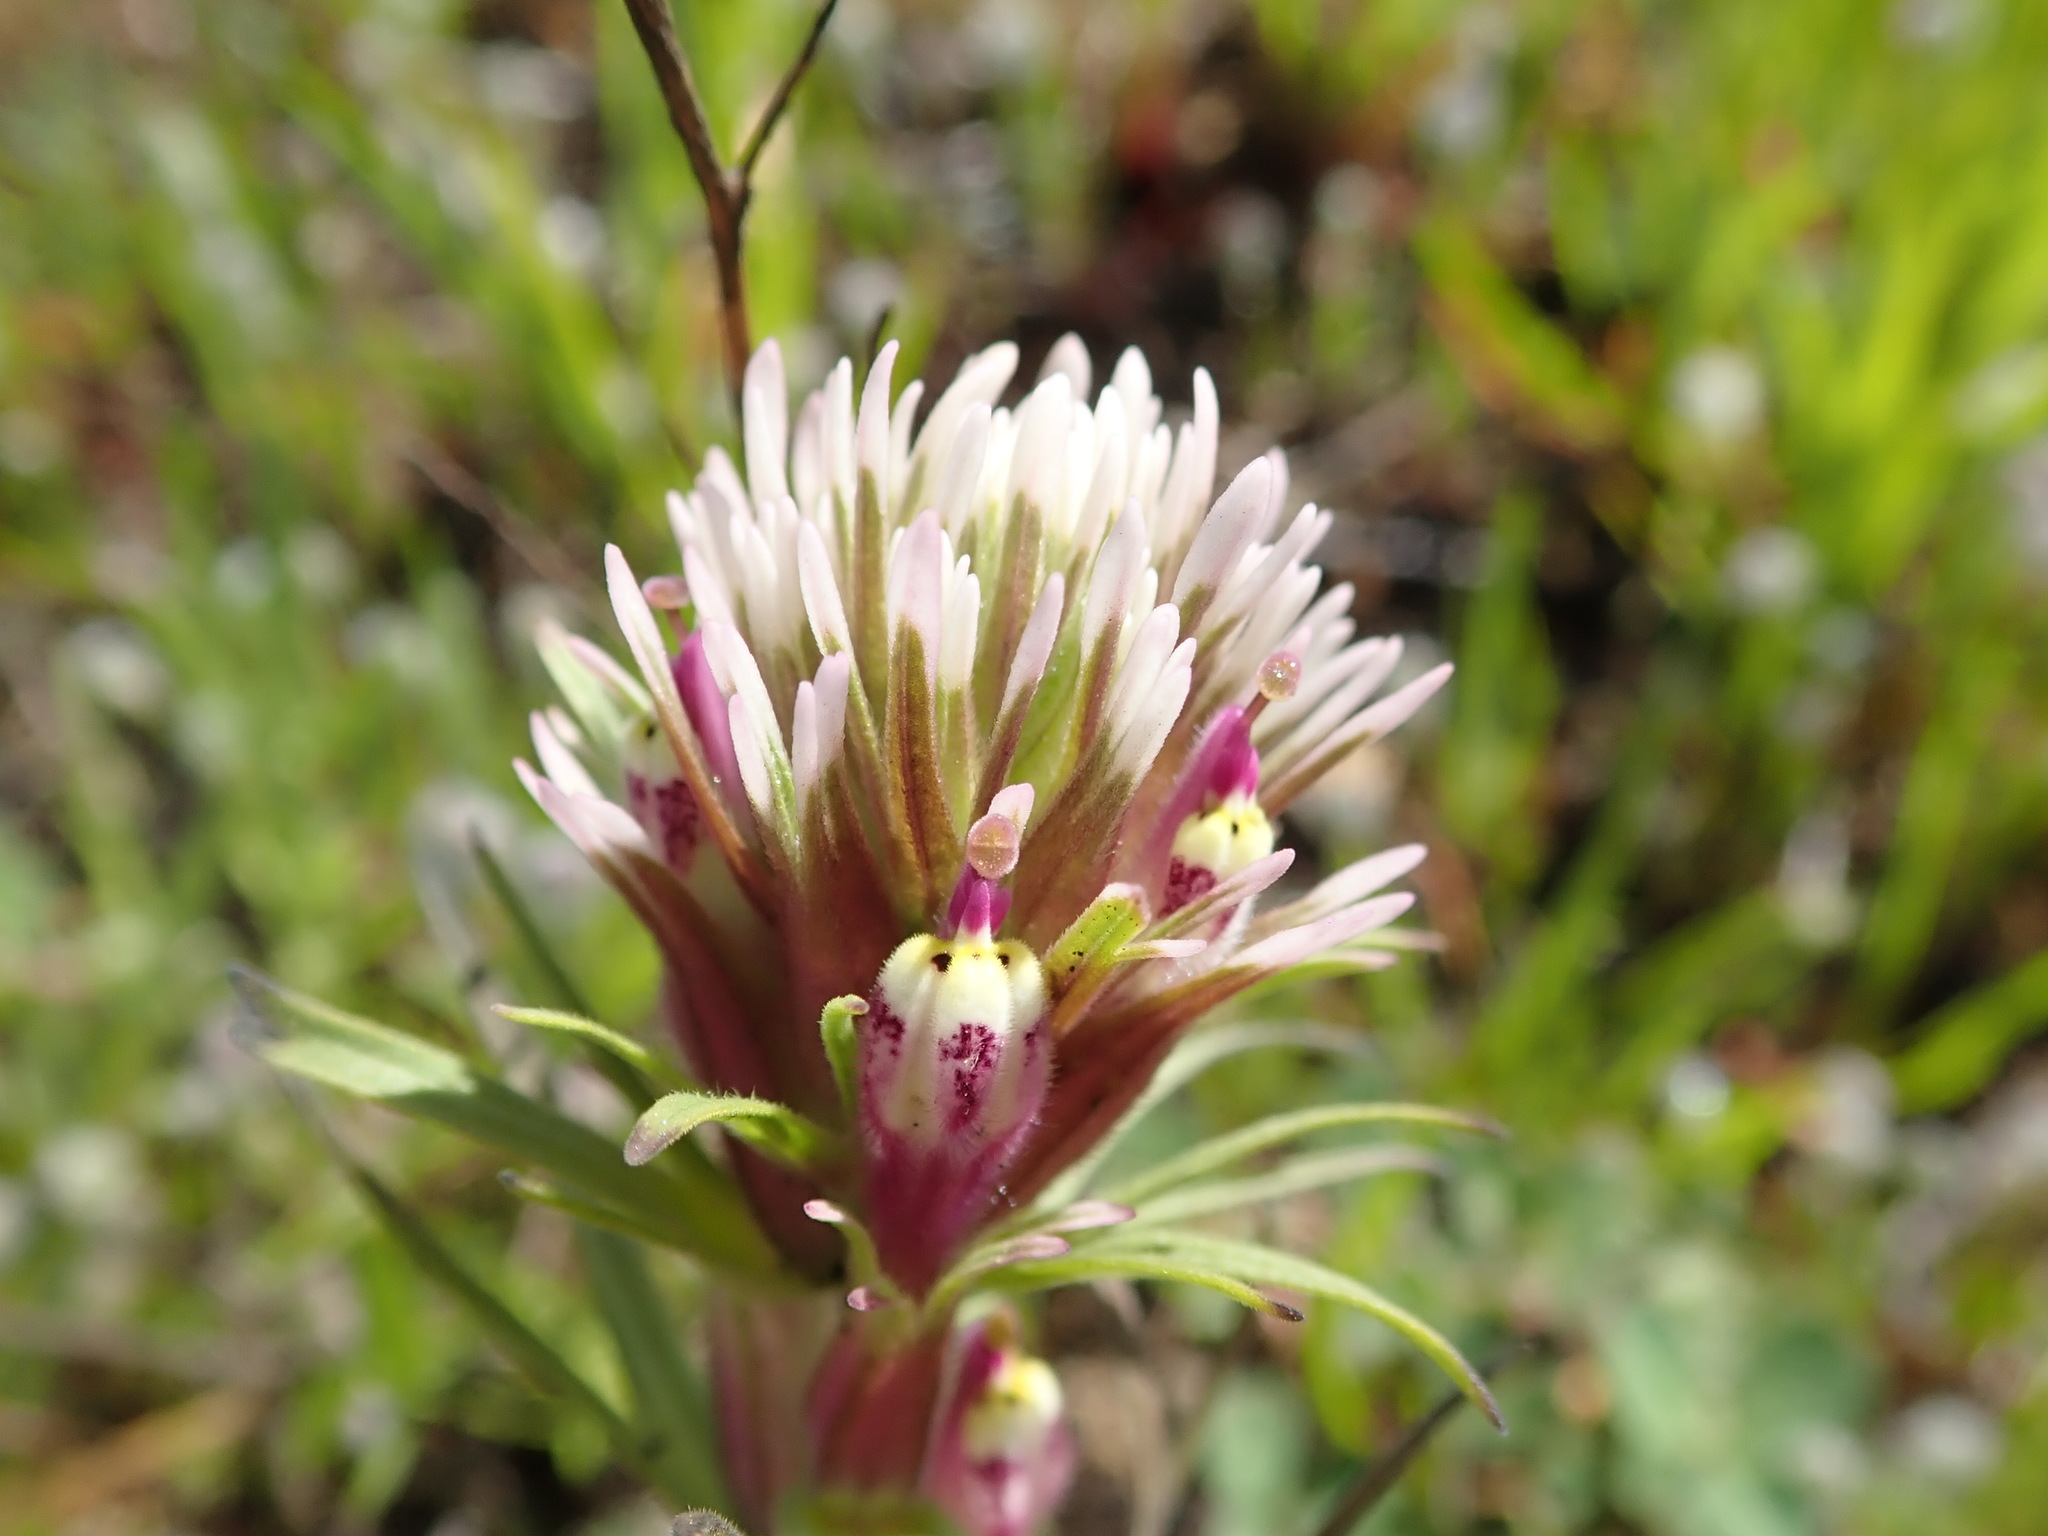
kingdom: Plantae
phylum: Tracheophyta
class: Magnoliopsida
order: Lamiales
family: Orobanchaceae
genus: Castilleja
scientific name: Castilleja densiflora
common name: Dense-flower indian paintbrush
